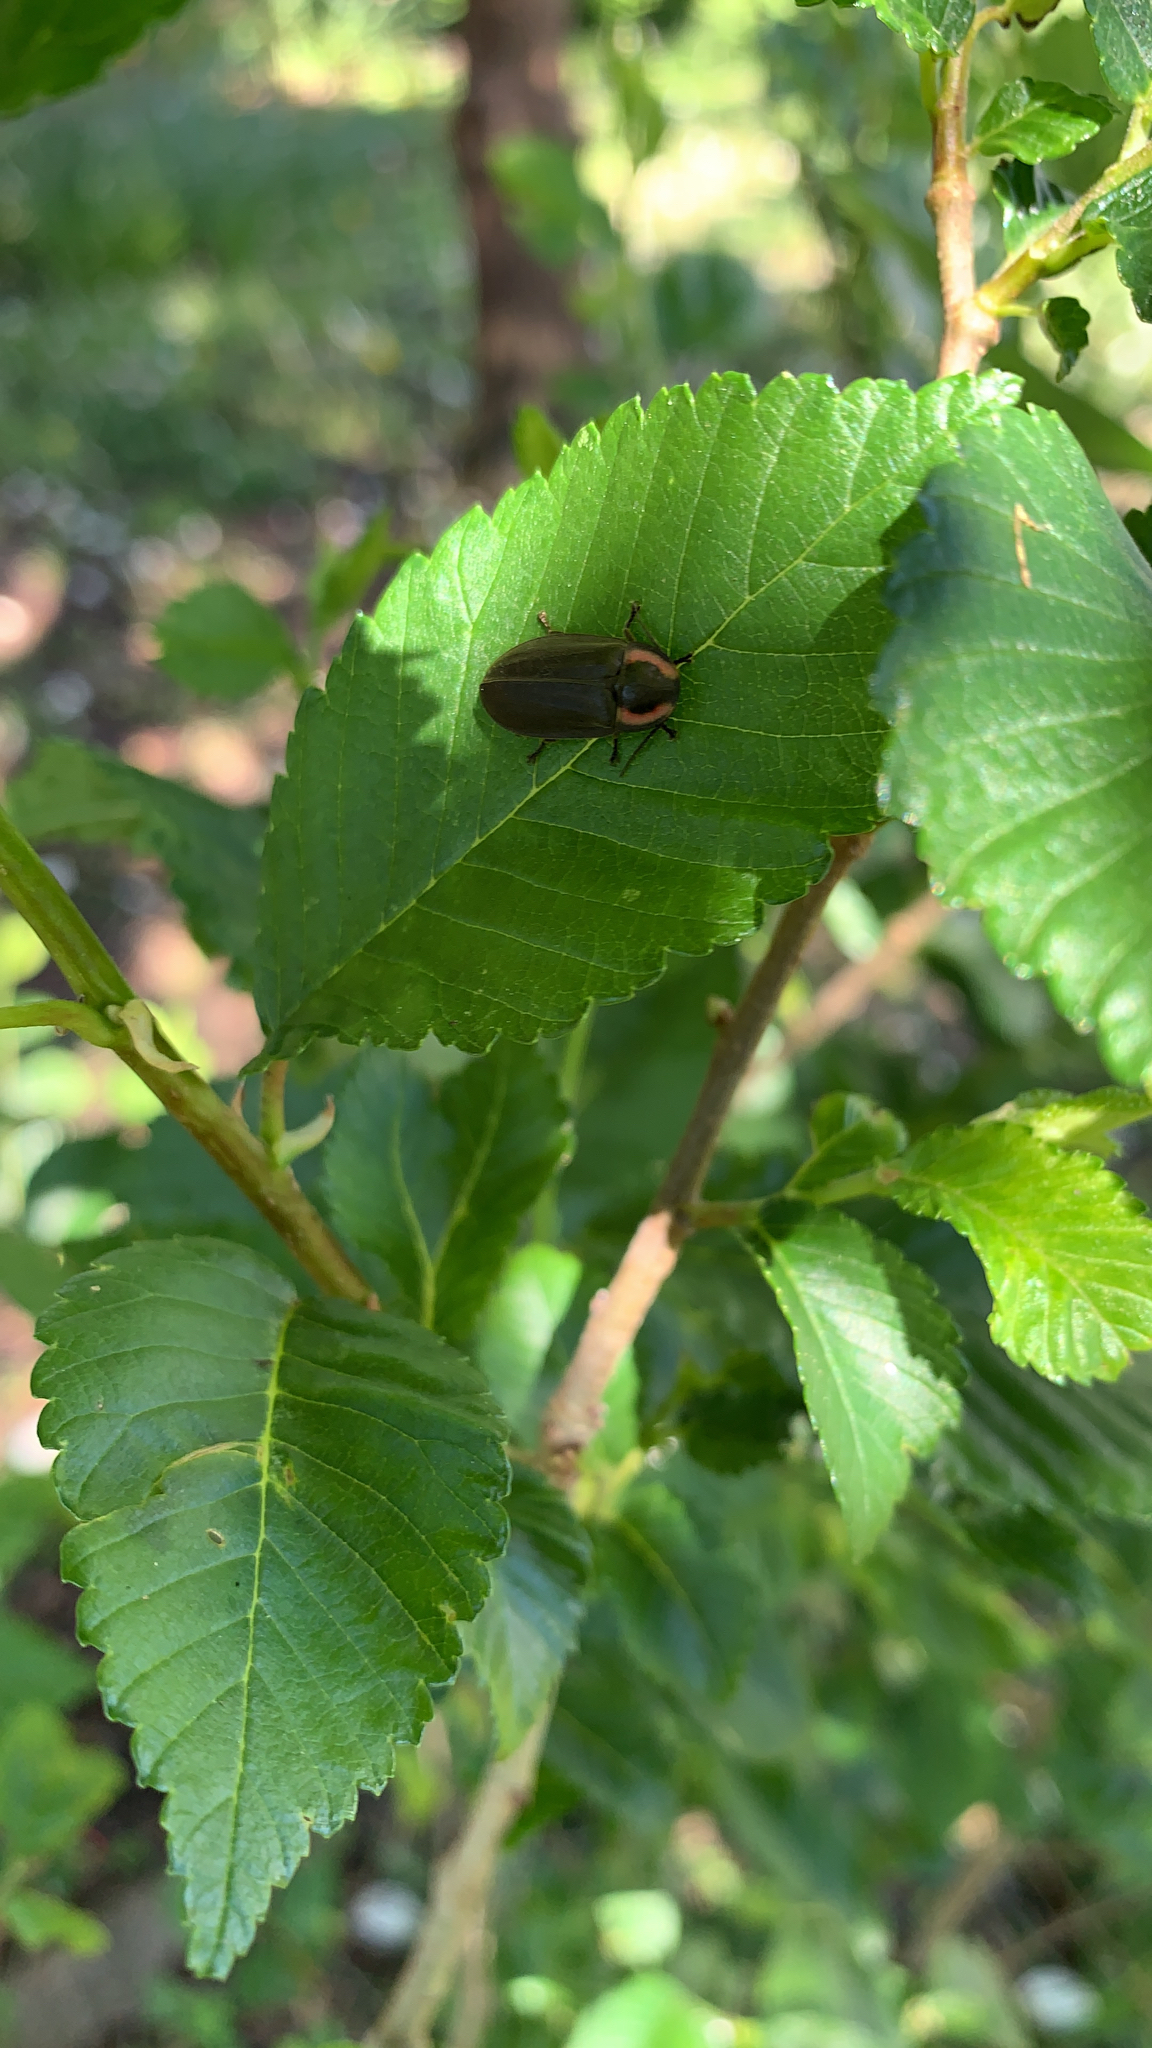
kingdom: Animalia
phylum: Arthropoda
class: Insecta
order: Coleoptera
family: Lampyridae
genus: Photinus
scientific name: Photinus corrusca
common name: Winter firefly
